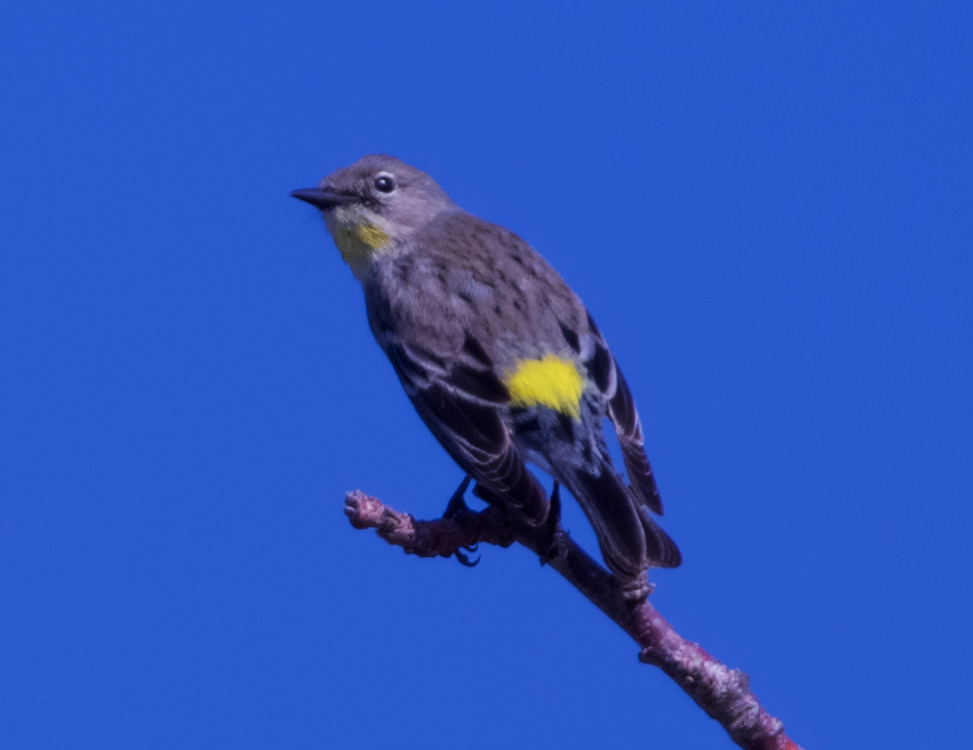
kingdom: Animalia
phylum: Chordata
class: Aves
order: Passeriformes
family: Parulidae
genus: Setophaga
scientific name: Setophaga coronata
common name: Myrtle warbler
